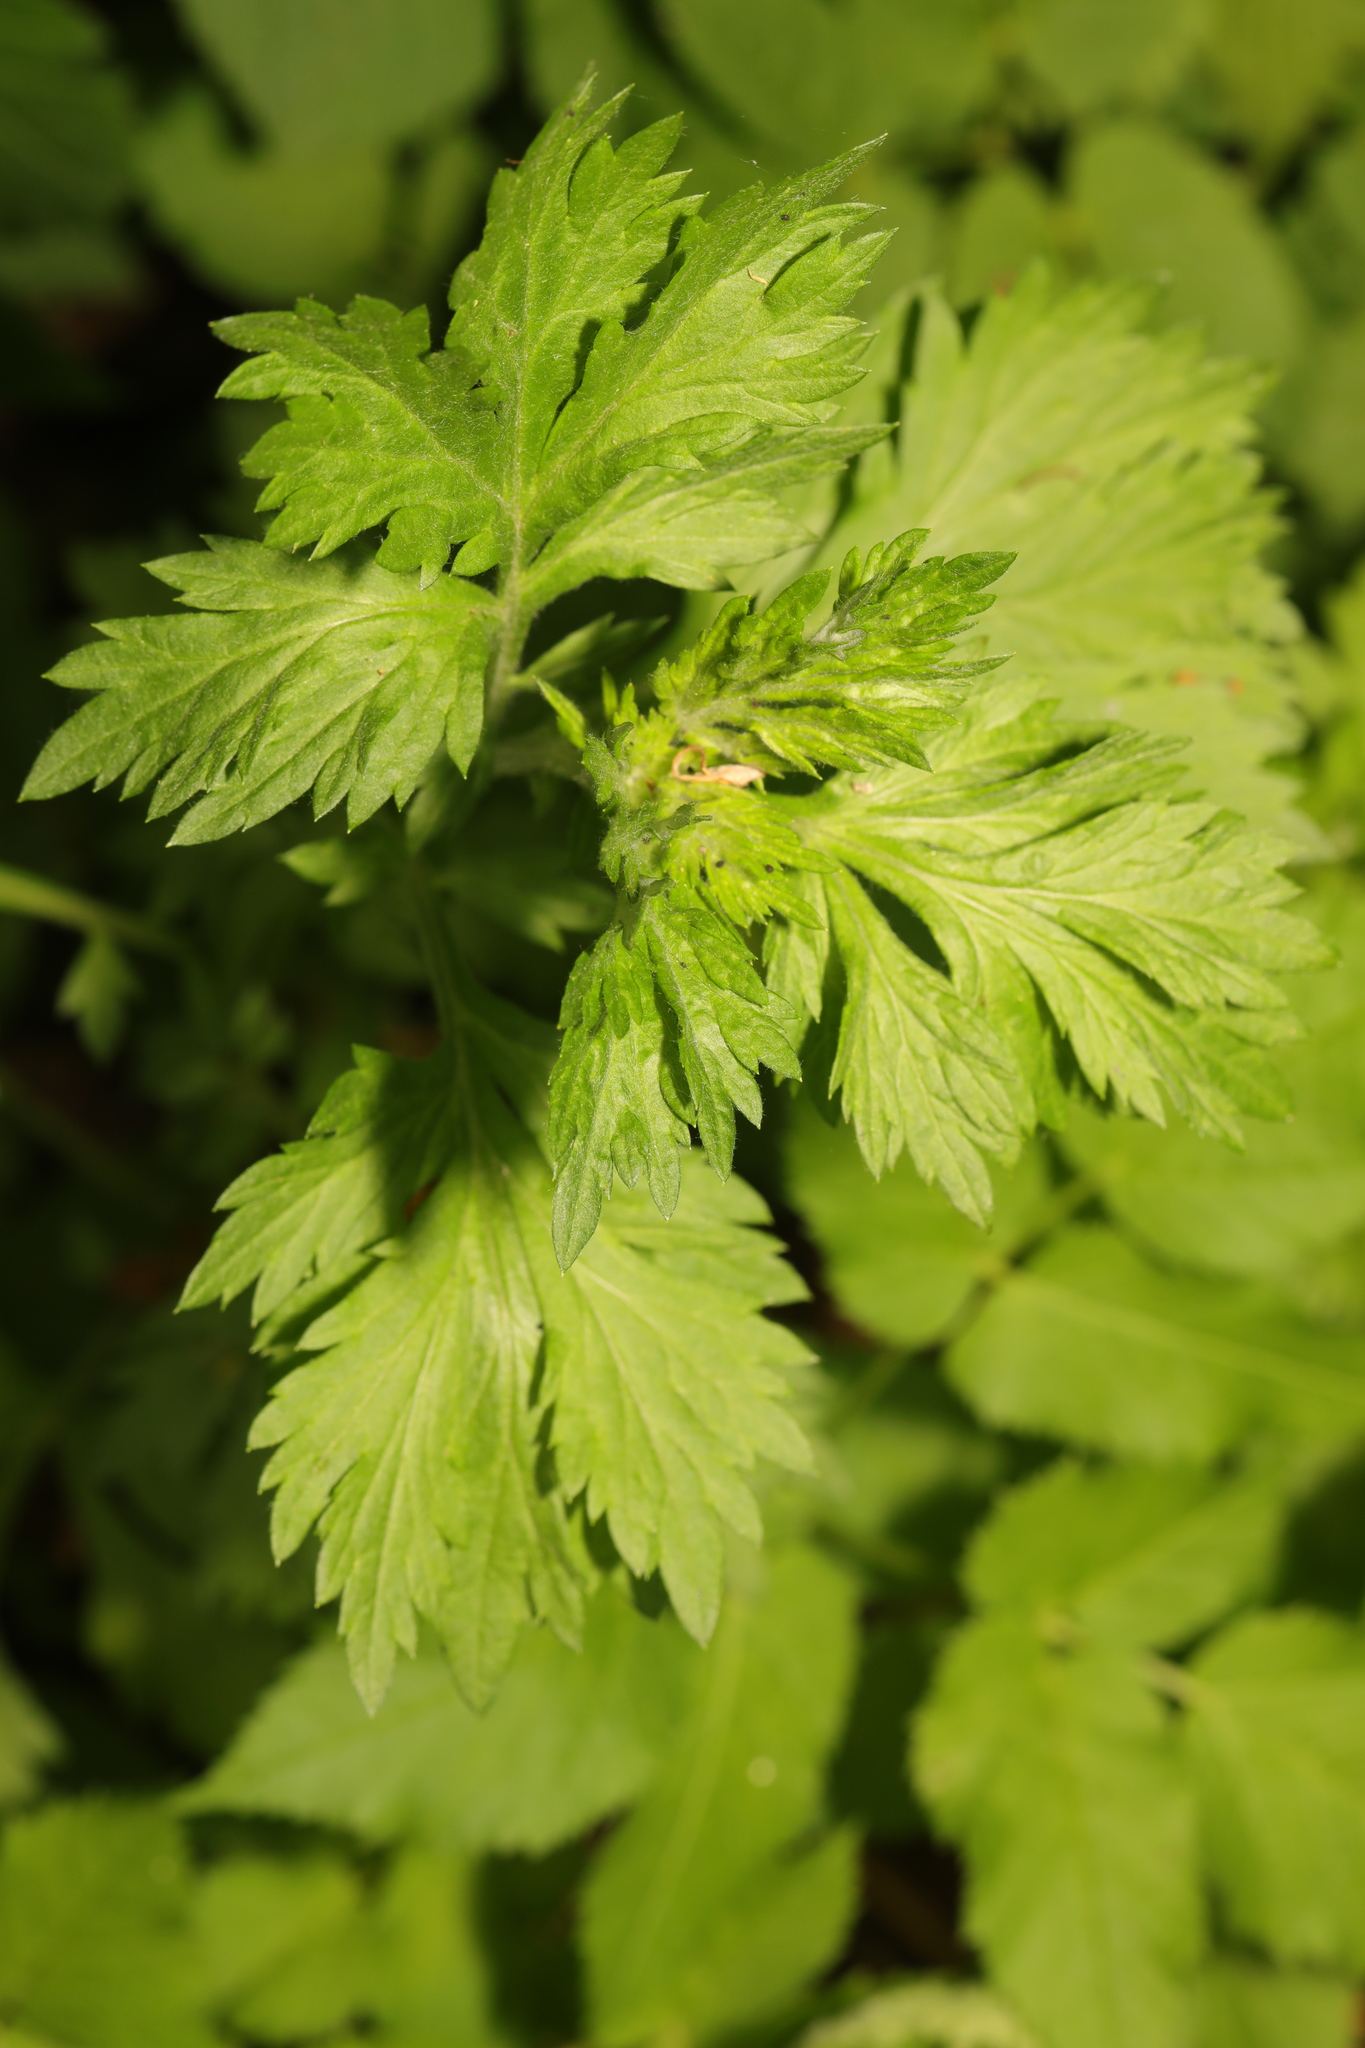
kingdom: Plantae
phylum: Tracheophyta
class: Magnoliopsida
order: Asterales
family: Asteraceae
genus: Artemisia
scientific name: Artemisia vulgaris
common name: Mugwort
